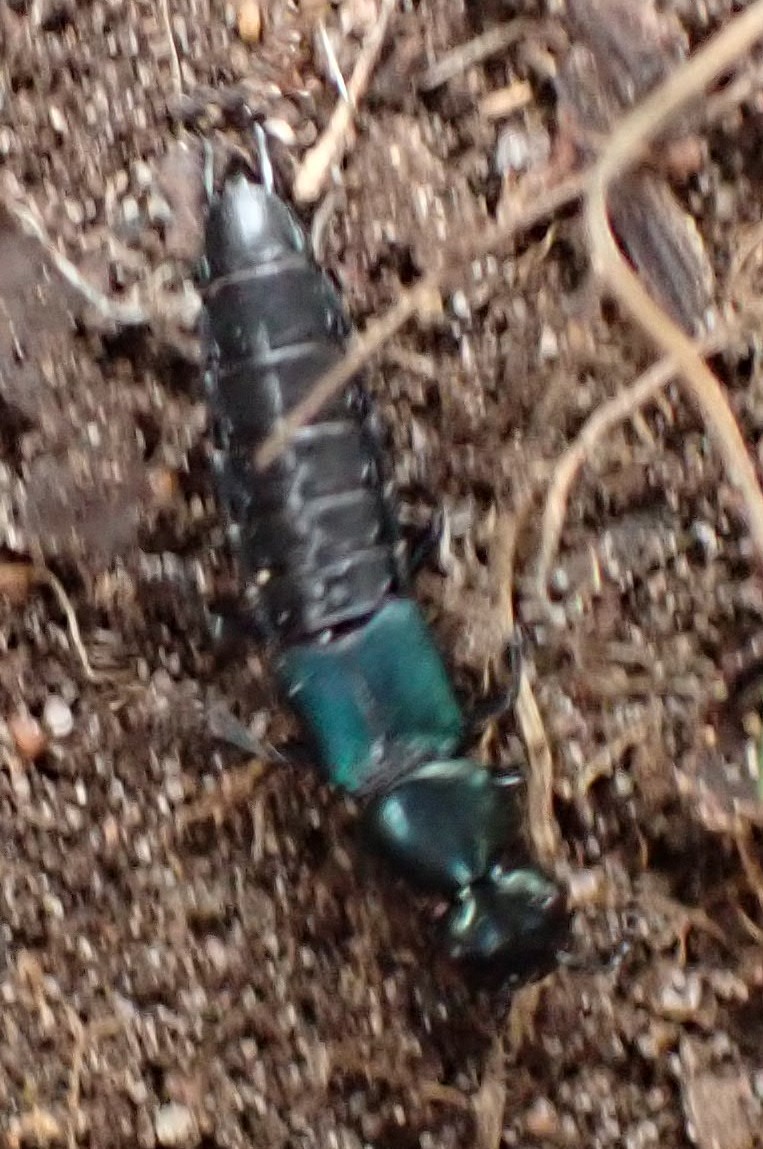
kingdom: Animalia
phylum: Arthropoda
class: Insecta
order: Coleoptera
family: Staphylinidae
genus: Antimerus
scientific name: Antimerus smaragdinus
